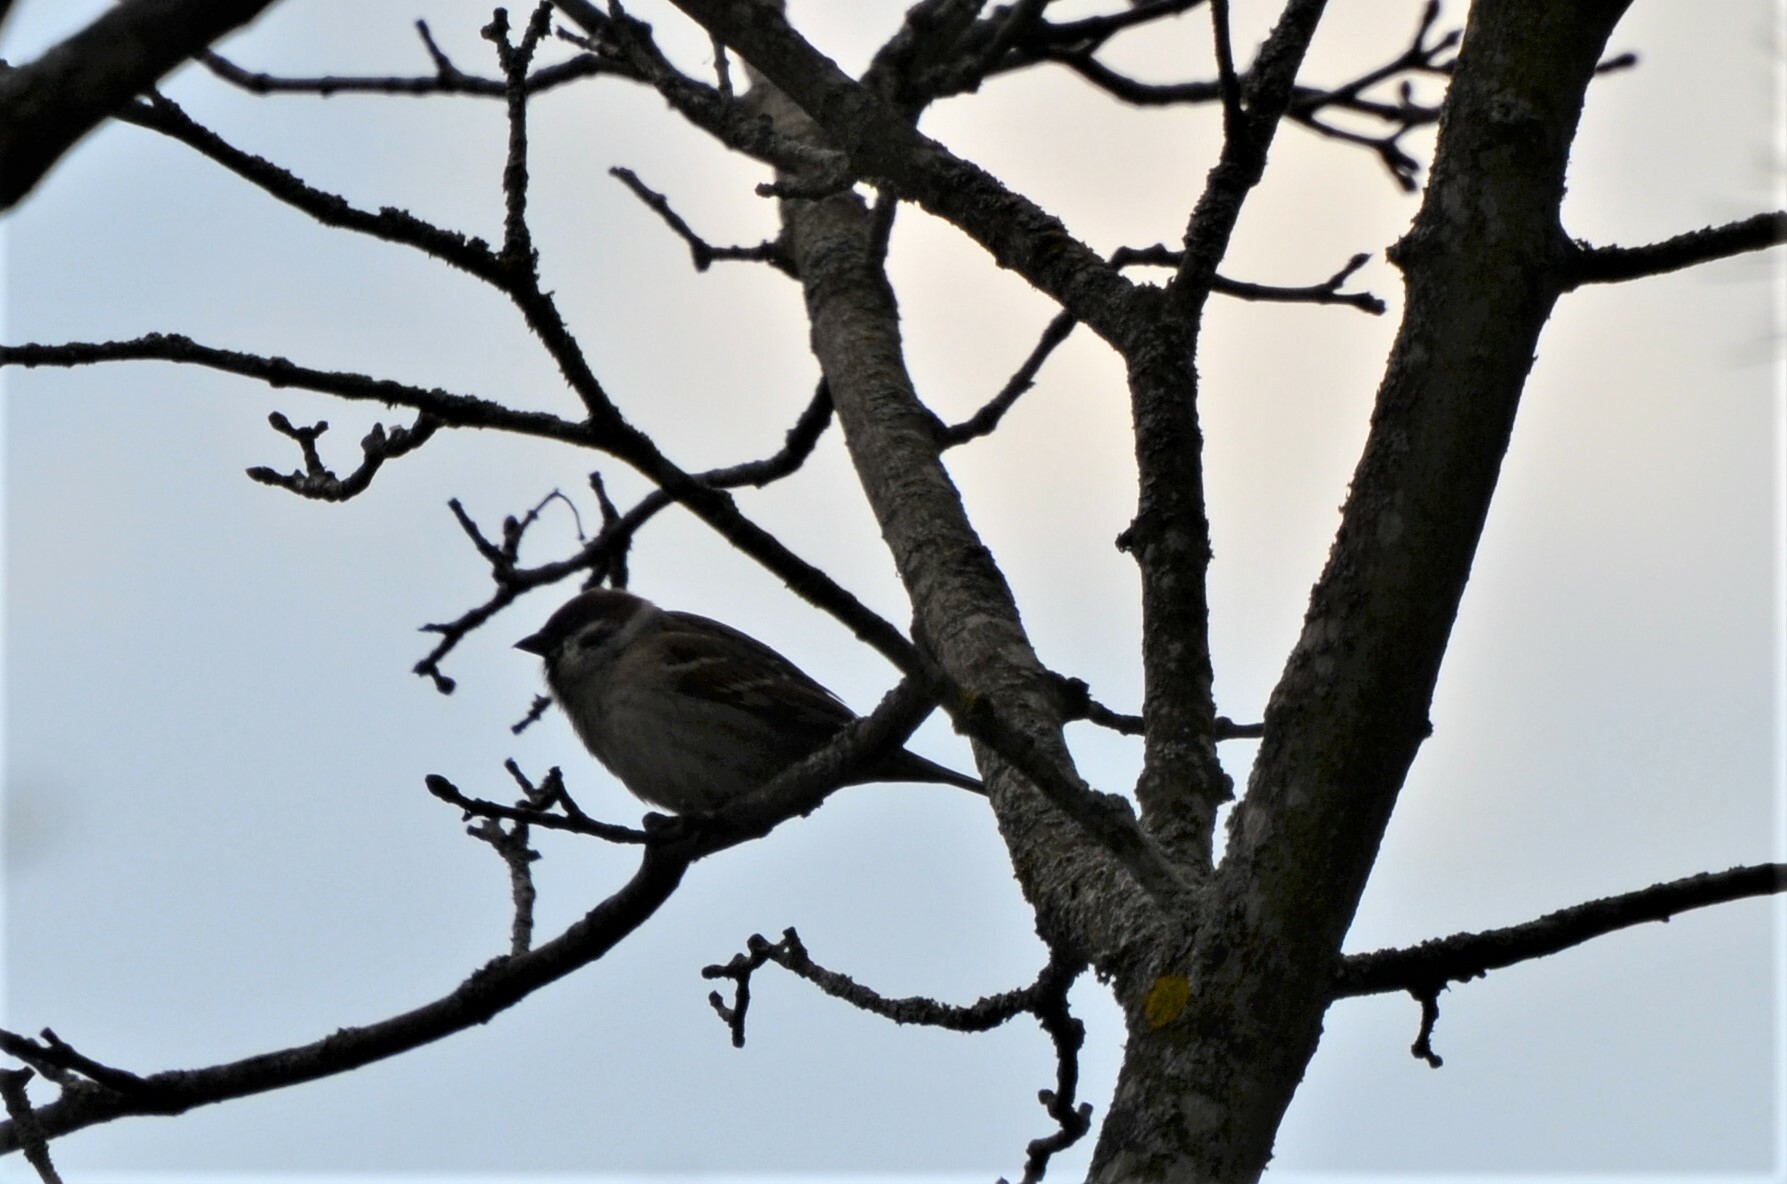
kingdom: Animalia
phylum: Chordata
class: Aves
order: Passeriformes
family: Passeridae
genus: Passer
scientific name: Passer montanus
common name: Eurasian tree sparrow
